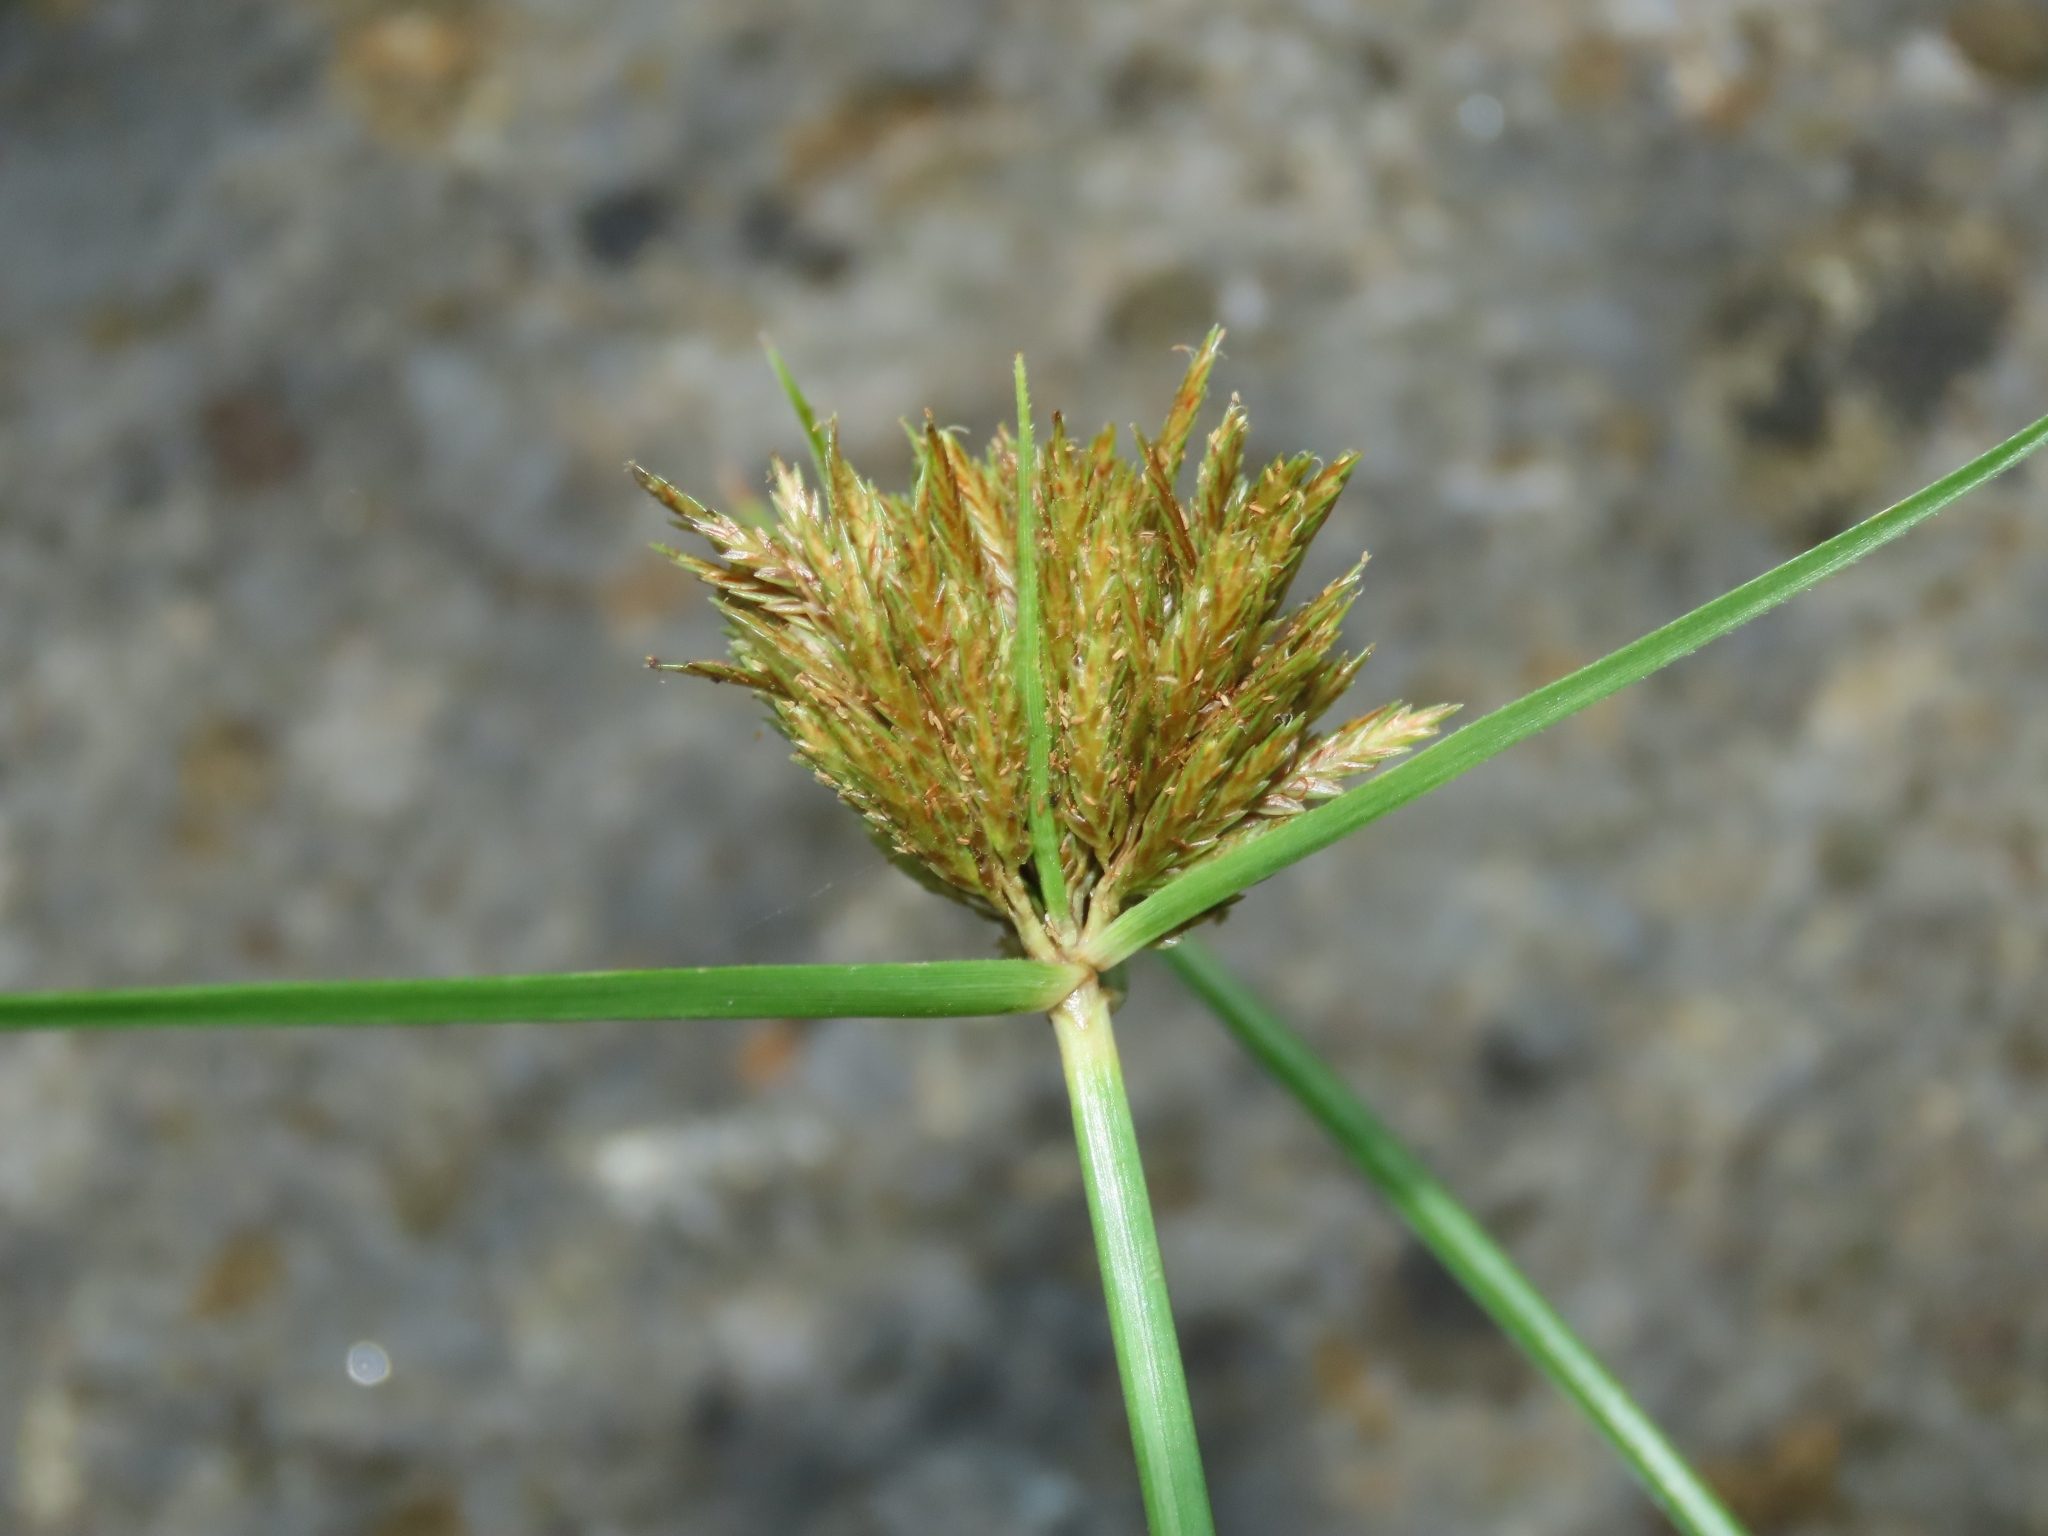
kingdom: Plantae
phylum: Tracheophyta
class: Liliopsida
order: Poales
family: Cyperaceae
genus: Cyperus
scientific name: Cyperus polystachyos
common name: Bunchy flat sedge
